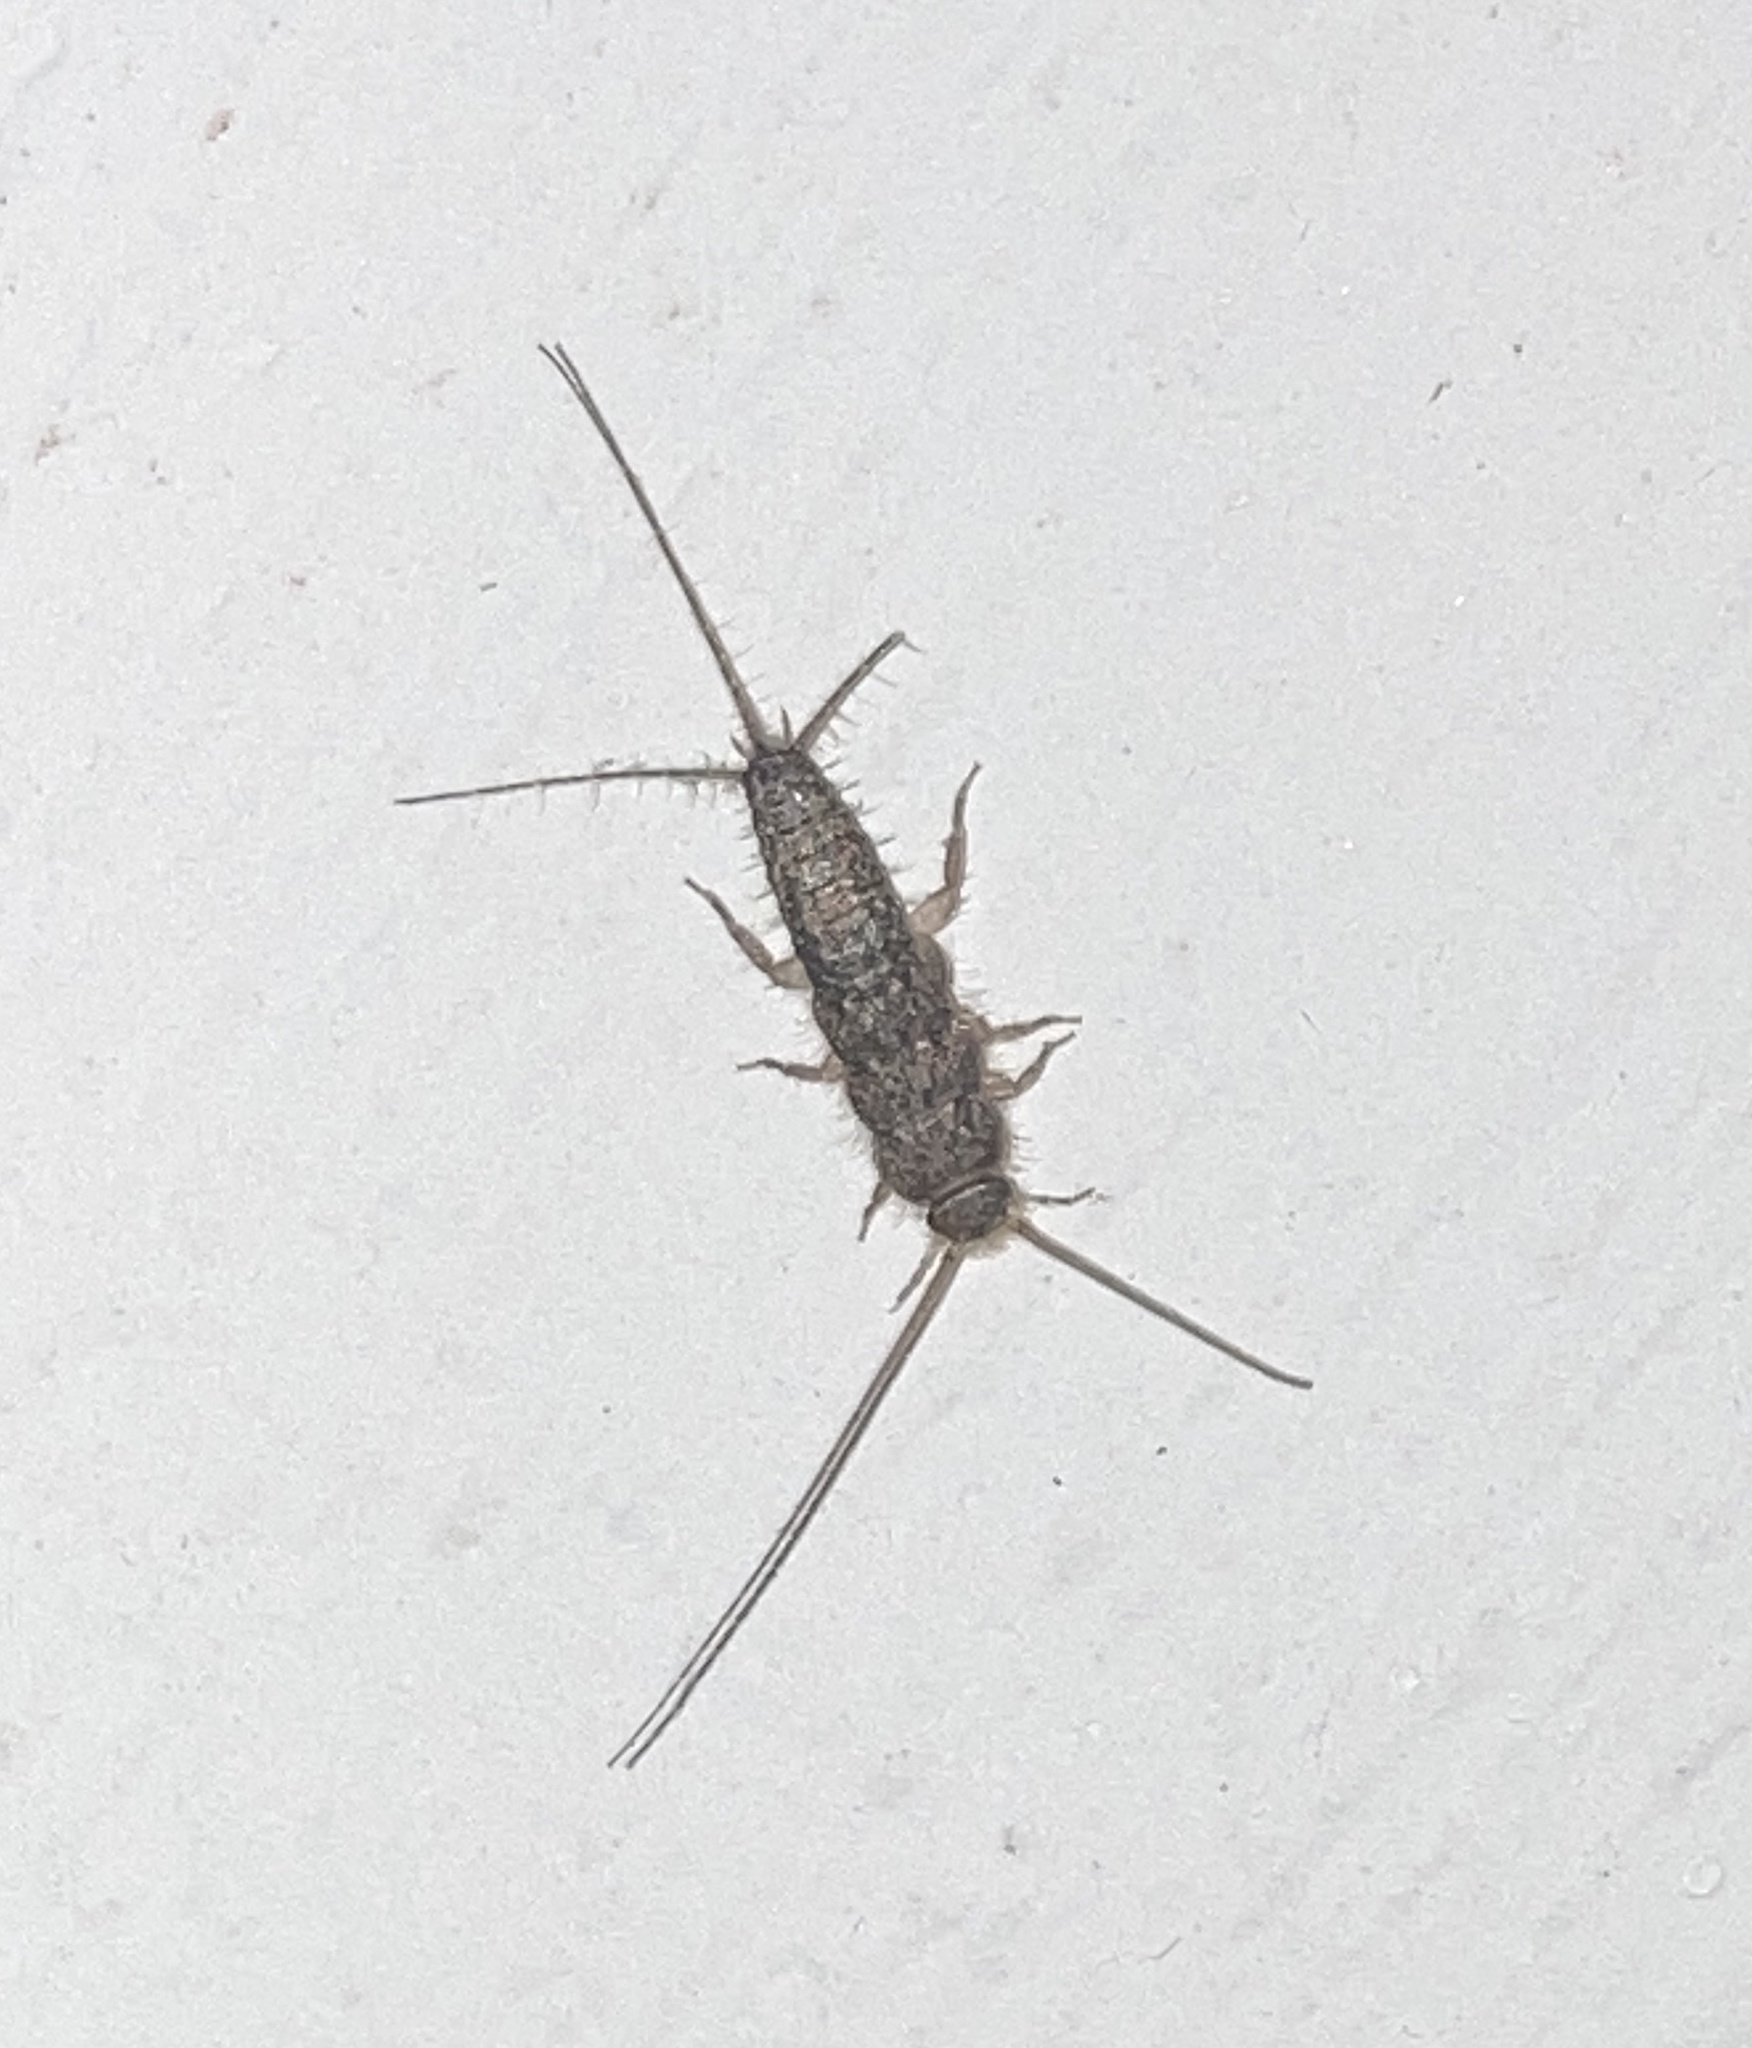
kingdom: Animalia
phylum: Arthropoda
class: Insecta
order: Zygentoma
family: Lepismatidae
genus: Ctenolepisma
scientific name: Ctenolepisma lineata
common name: Four-lined silverfish
